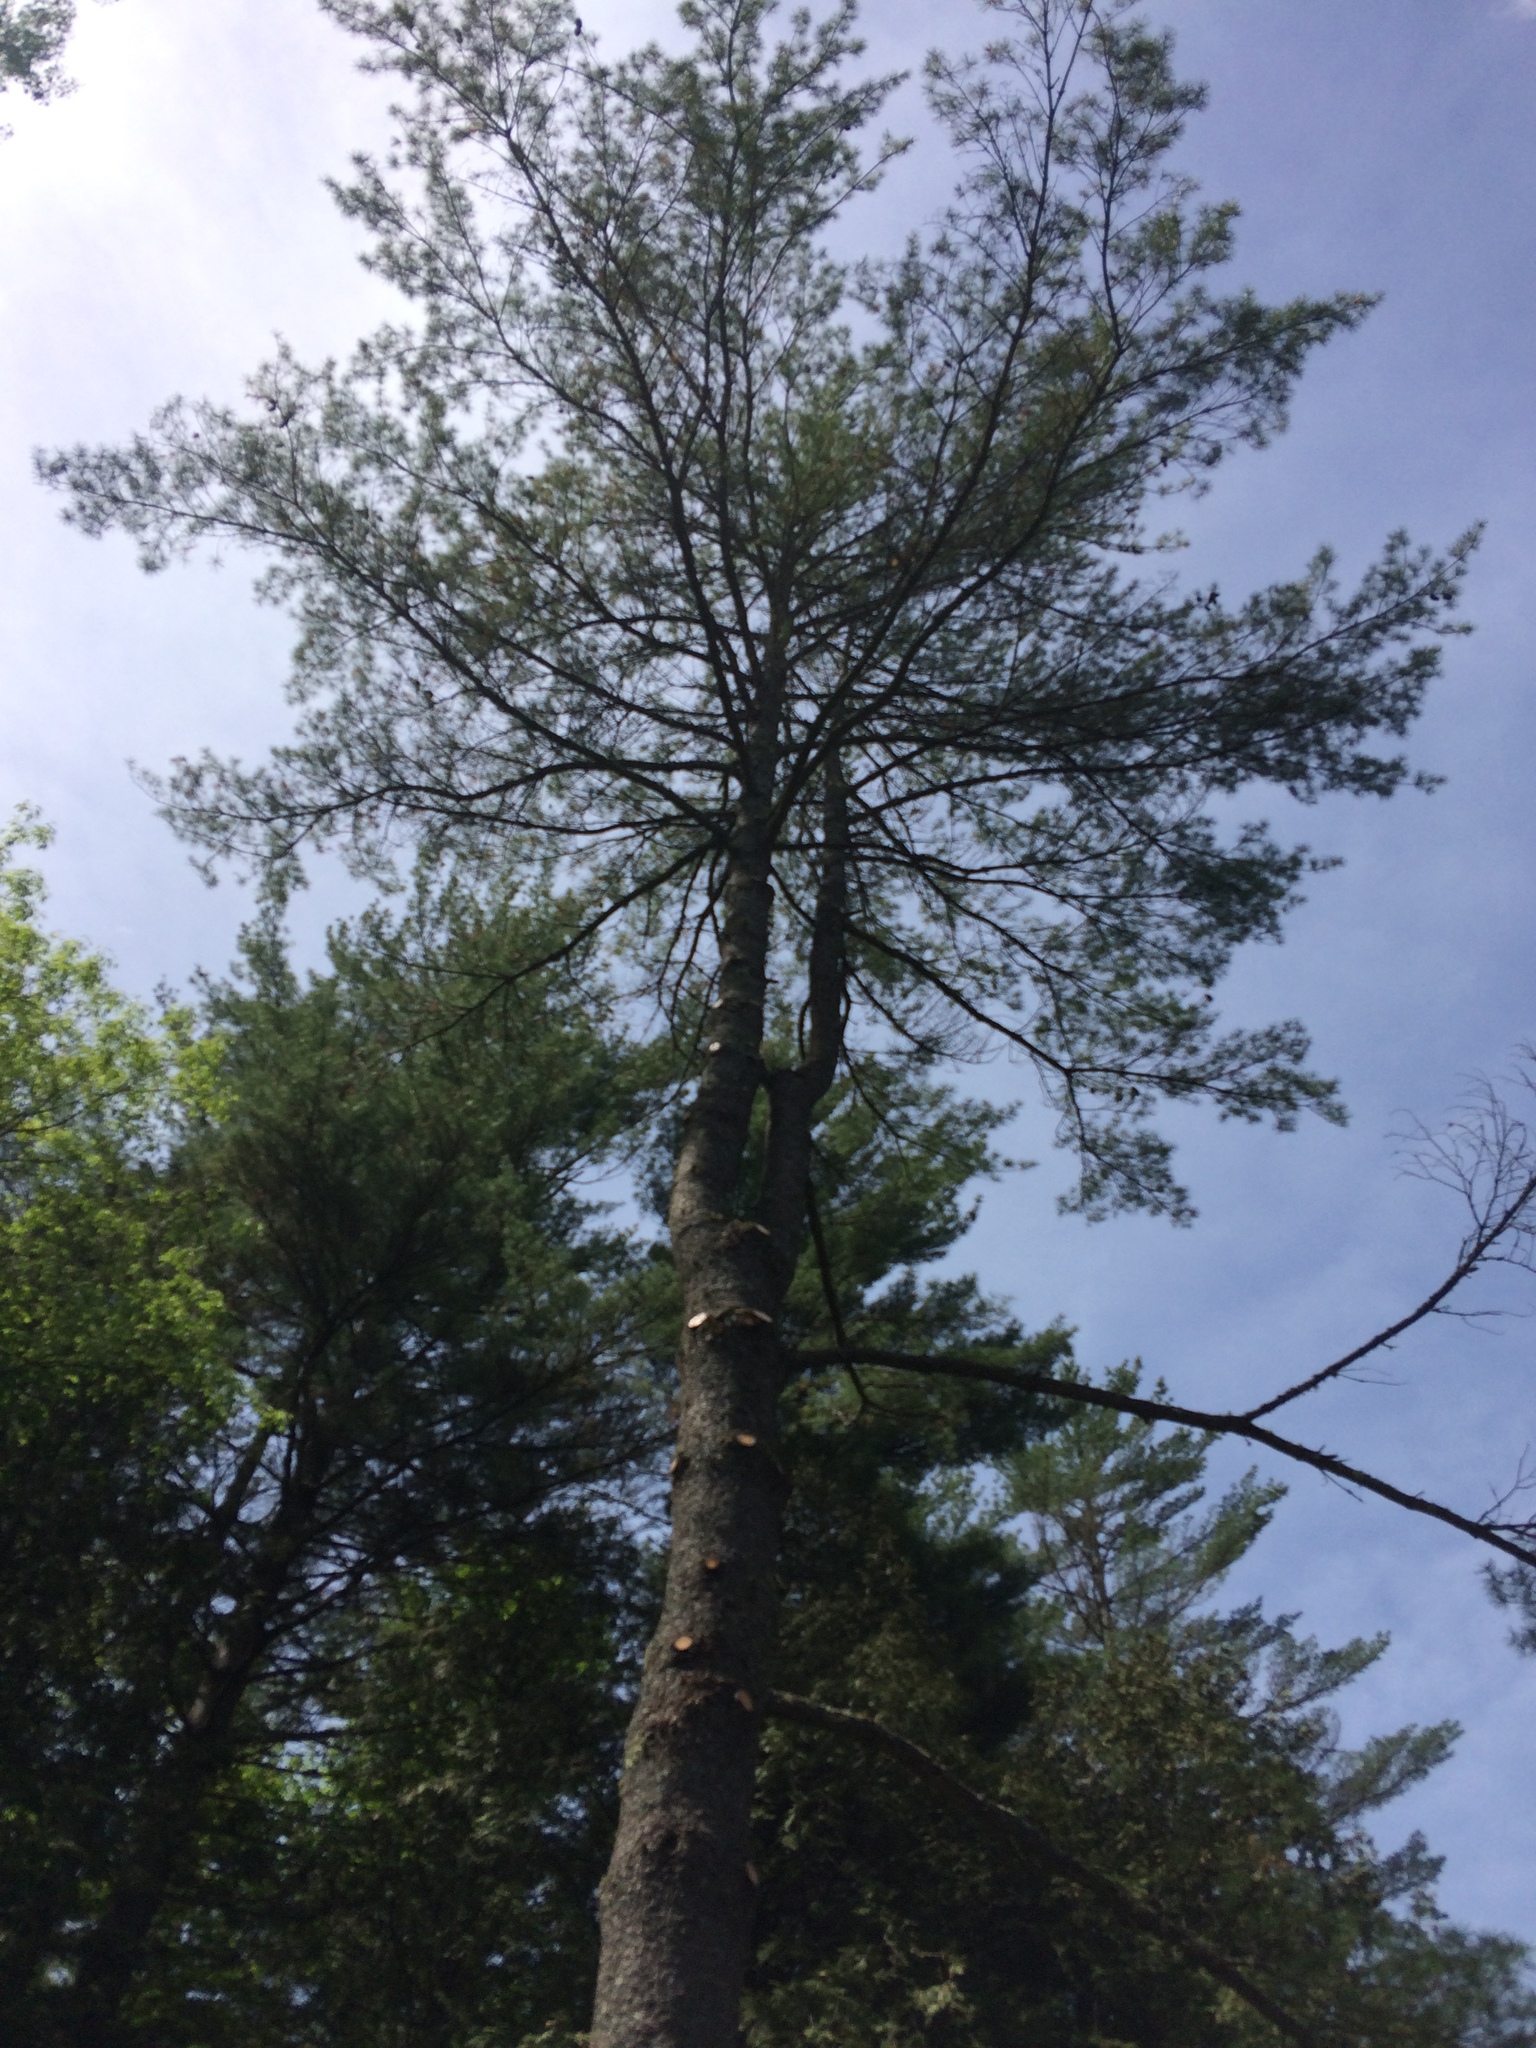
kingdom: Plantae
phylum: Tracheophyta
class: Pinopsida
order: Pinales
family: Pinaceae
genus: Pinus
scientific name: Pinus strobus
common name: Weymouth pine
